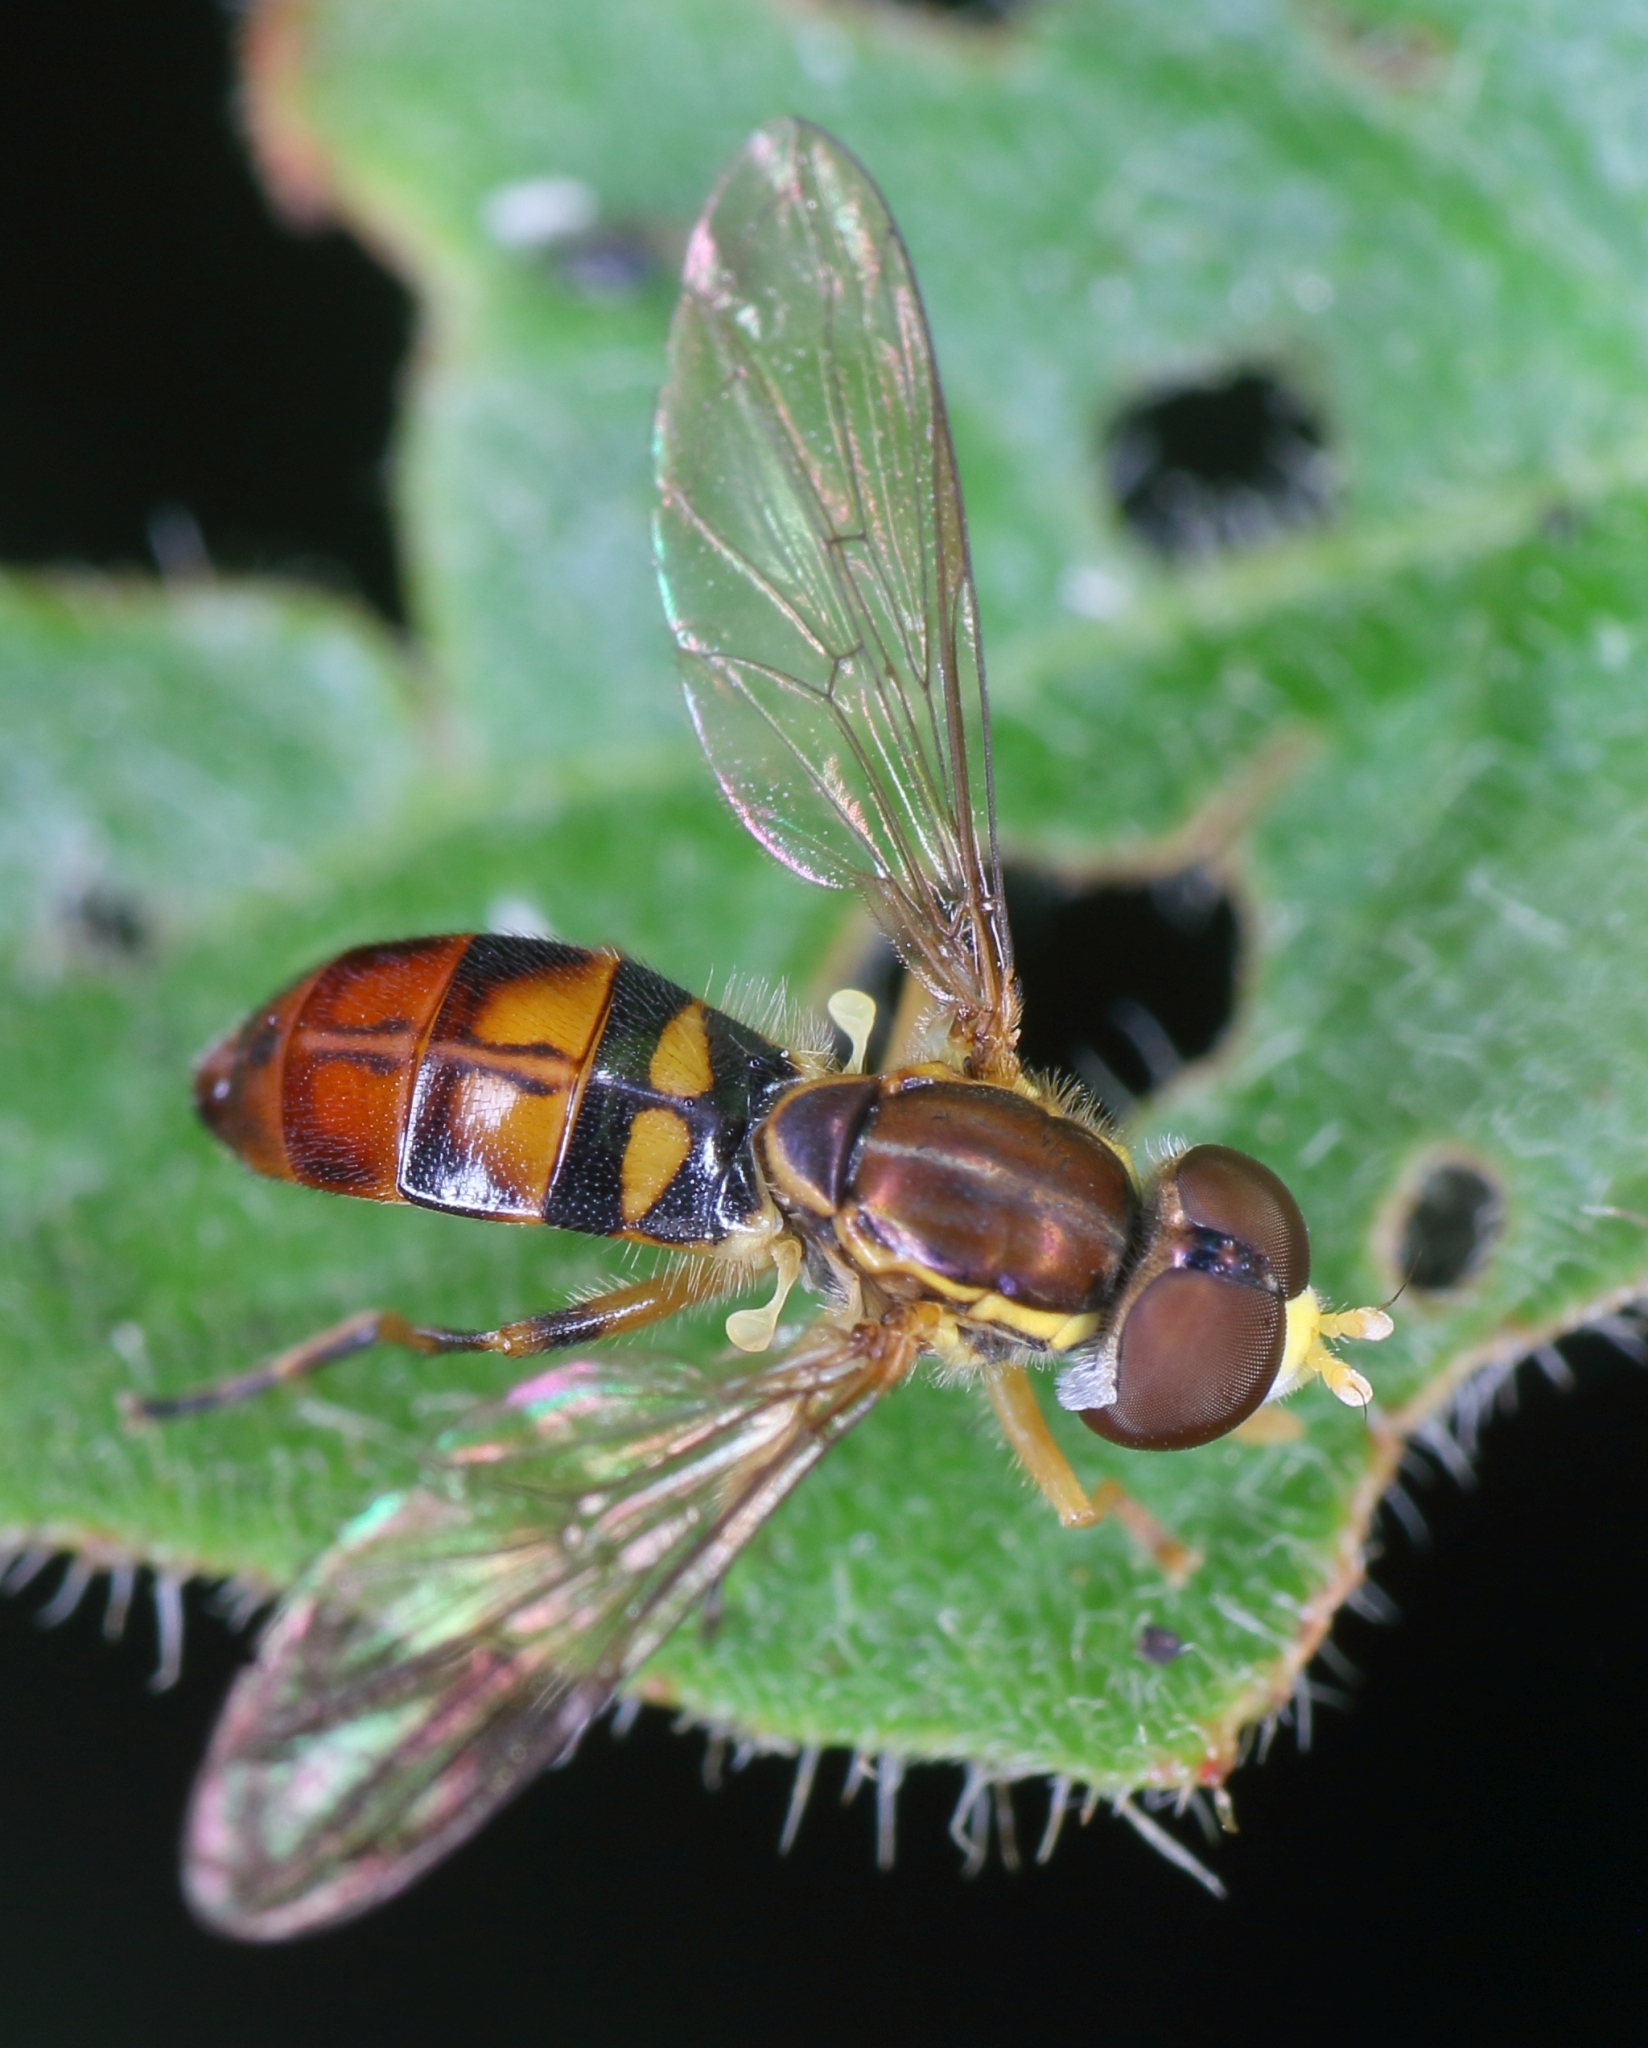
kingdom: Animalia
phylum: Arthropoda
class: Insecta
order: Diptera
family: Syrphidae
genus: Toxomerus
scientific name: Toxomerus floralis
